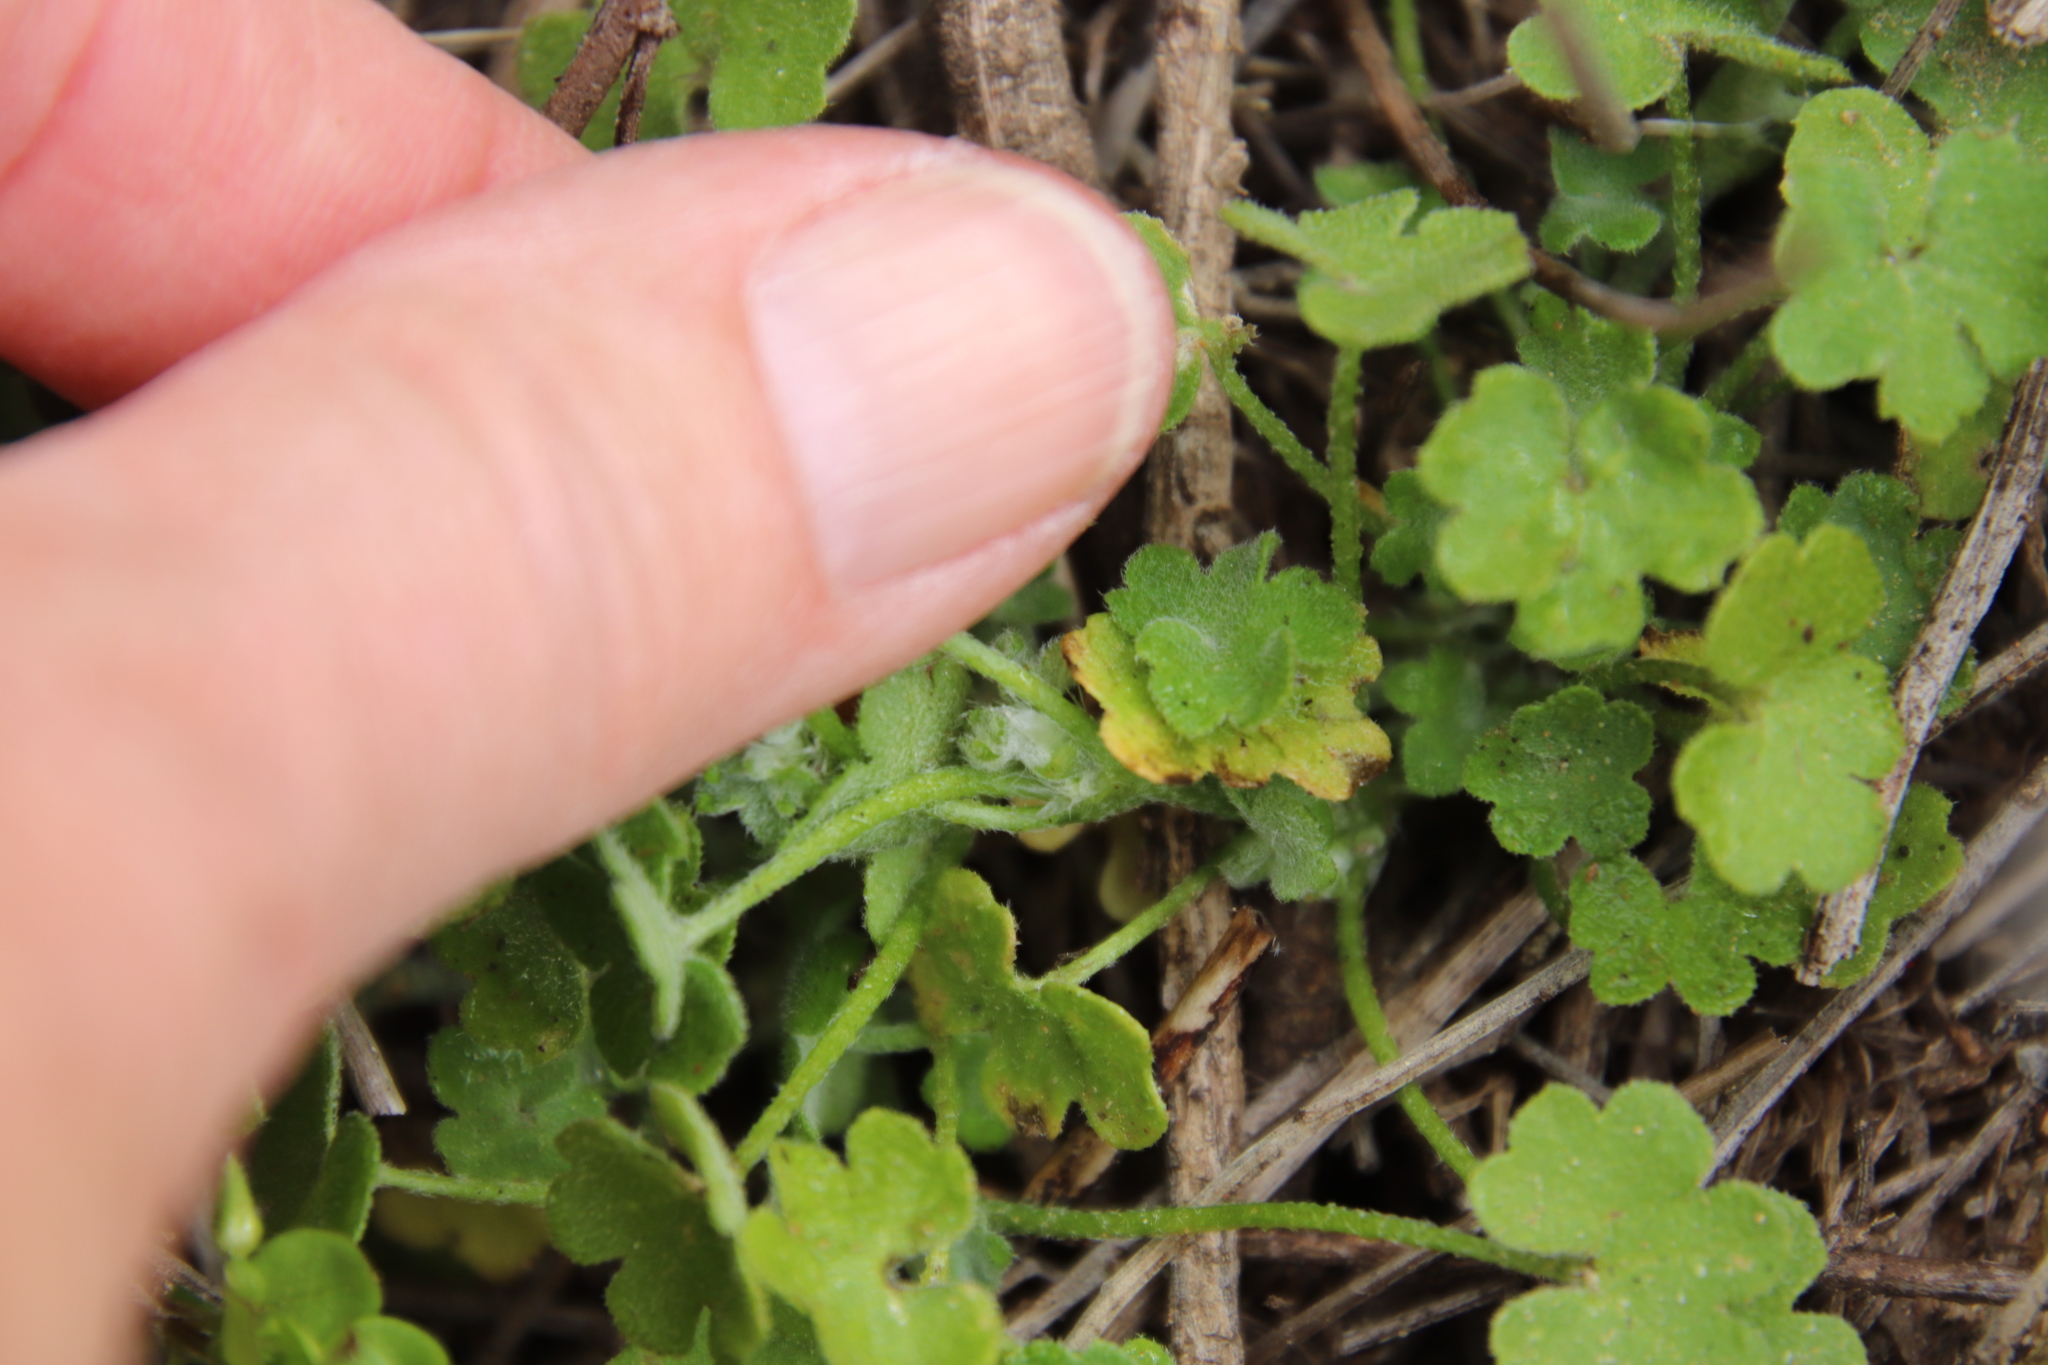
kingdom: Plantae
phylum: Tracheophyta
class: Magnoliopsida
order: Apiales
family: Apiaceae
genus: Bowlesia
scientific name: Bowlesia incana
